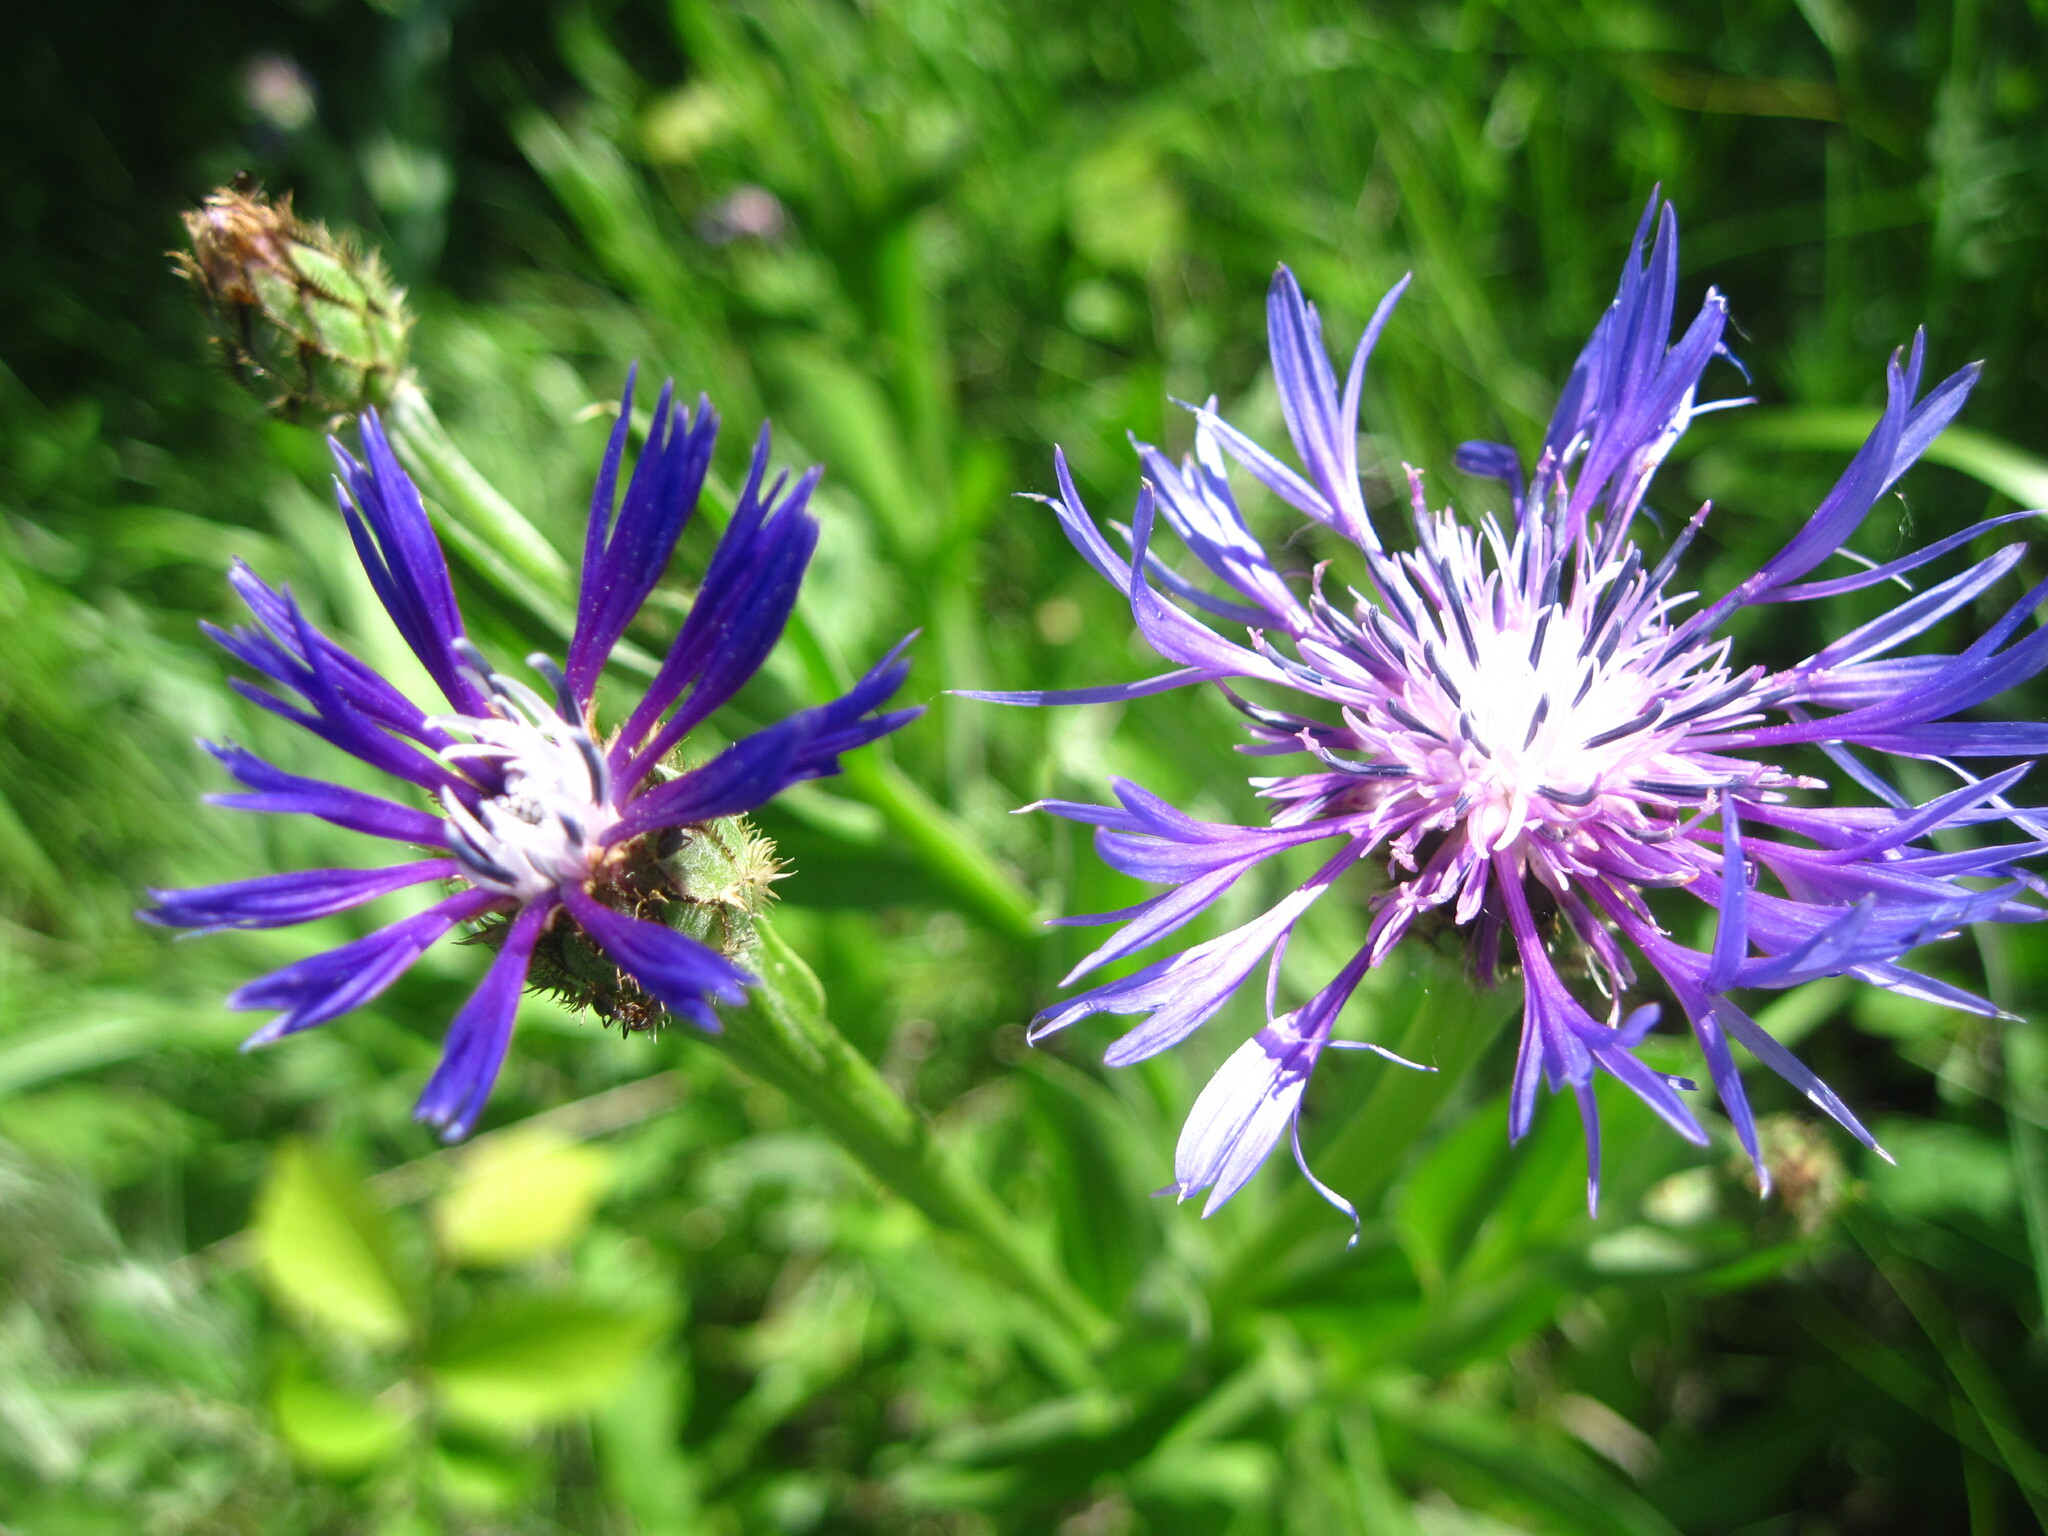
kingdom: Plantae
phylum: Tracheophyta
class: Magnoliopsida
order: Asterales
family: Asteraceae
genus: Centaurea
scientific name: Centaurea tanaitica
